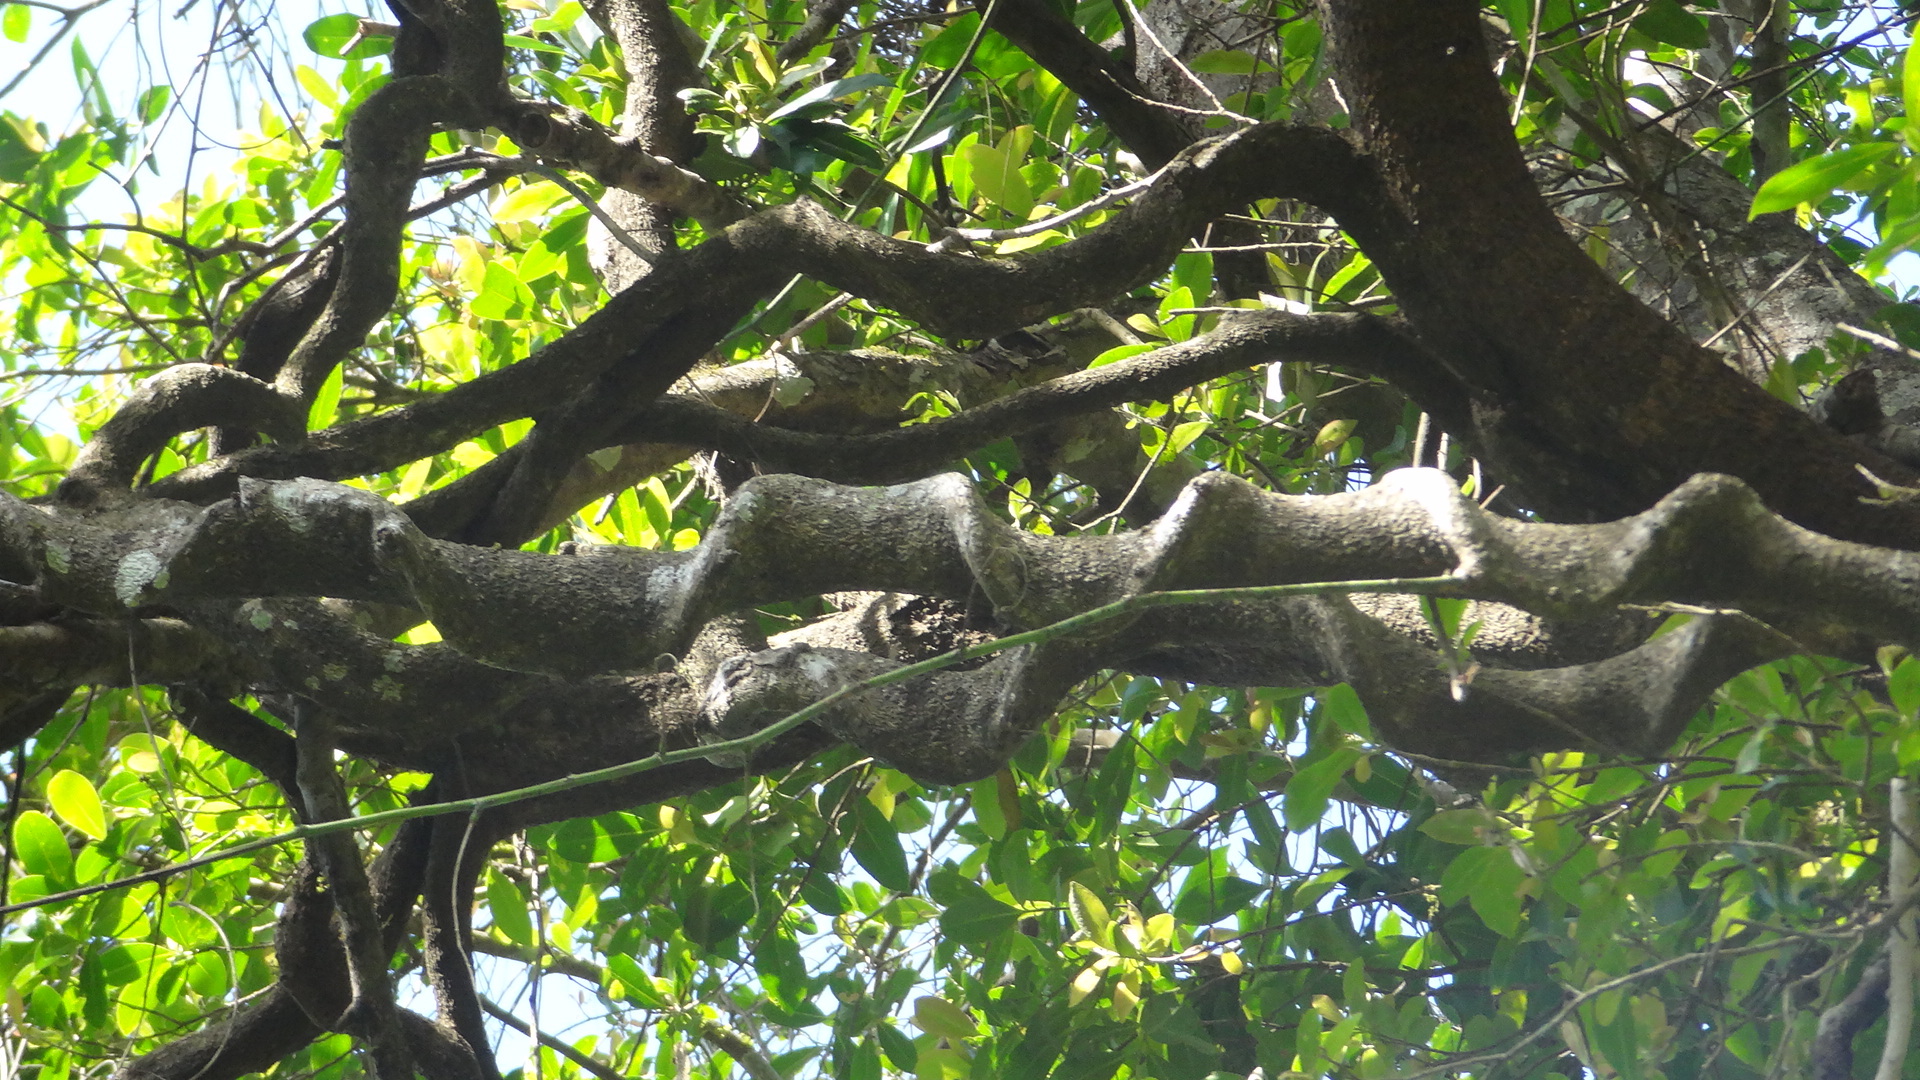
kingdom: Plantae
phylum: Tracheophyta
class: Magnoliopsida
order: Fabales
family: Fabaceae
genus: Entada
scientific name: Entada rheedei
